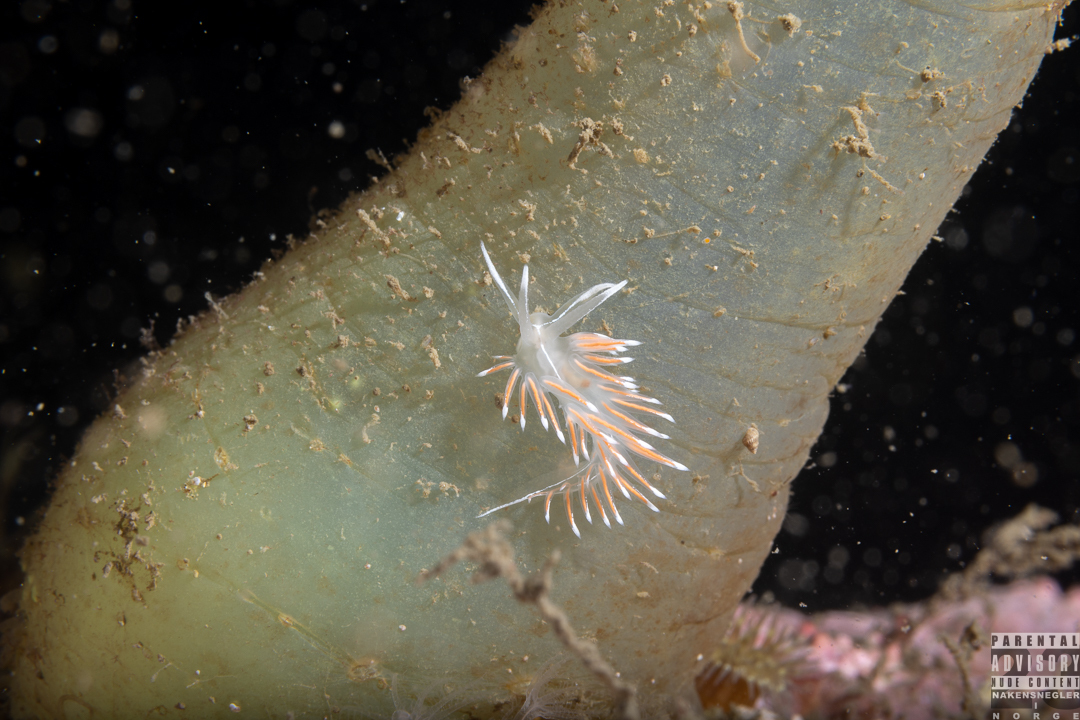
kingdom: Animalia
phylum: Mollusca
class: Gastropoda
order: Nudibranchia
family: Coryphellidae
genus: Coryphella
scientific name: Coryphella lineata
